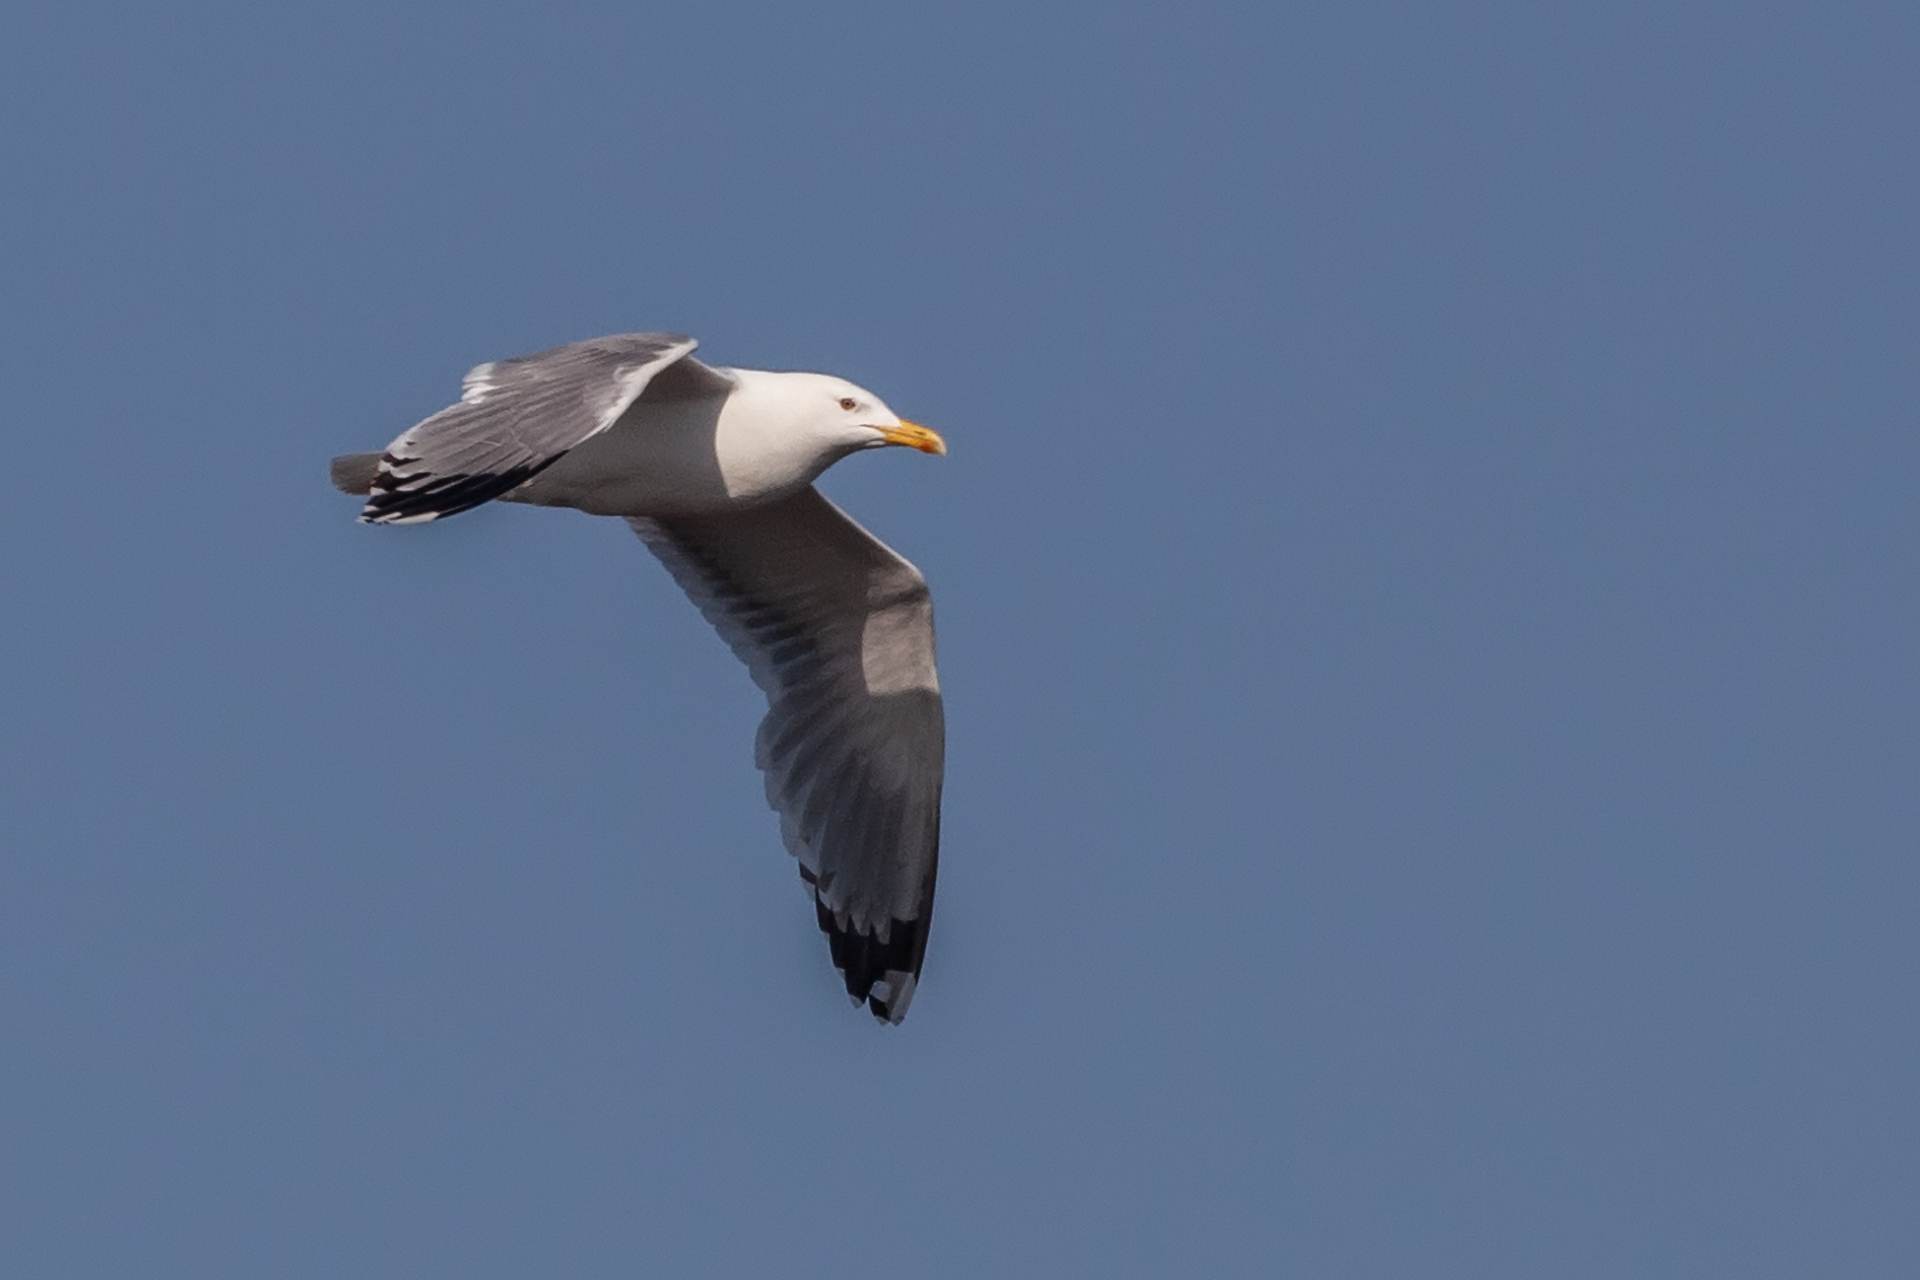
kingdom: Animalia
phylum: Chordata
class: Aves
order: Charadriiformes
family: Laridae
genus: Larus
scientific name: Larus cachinnans
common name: Caspian gull
